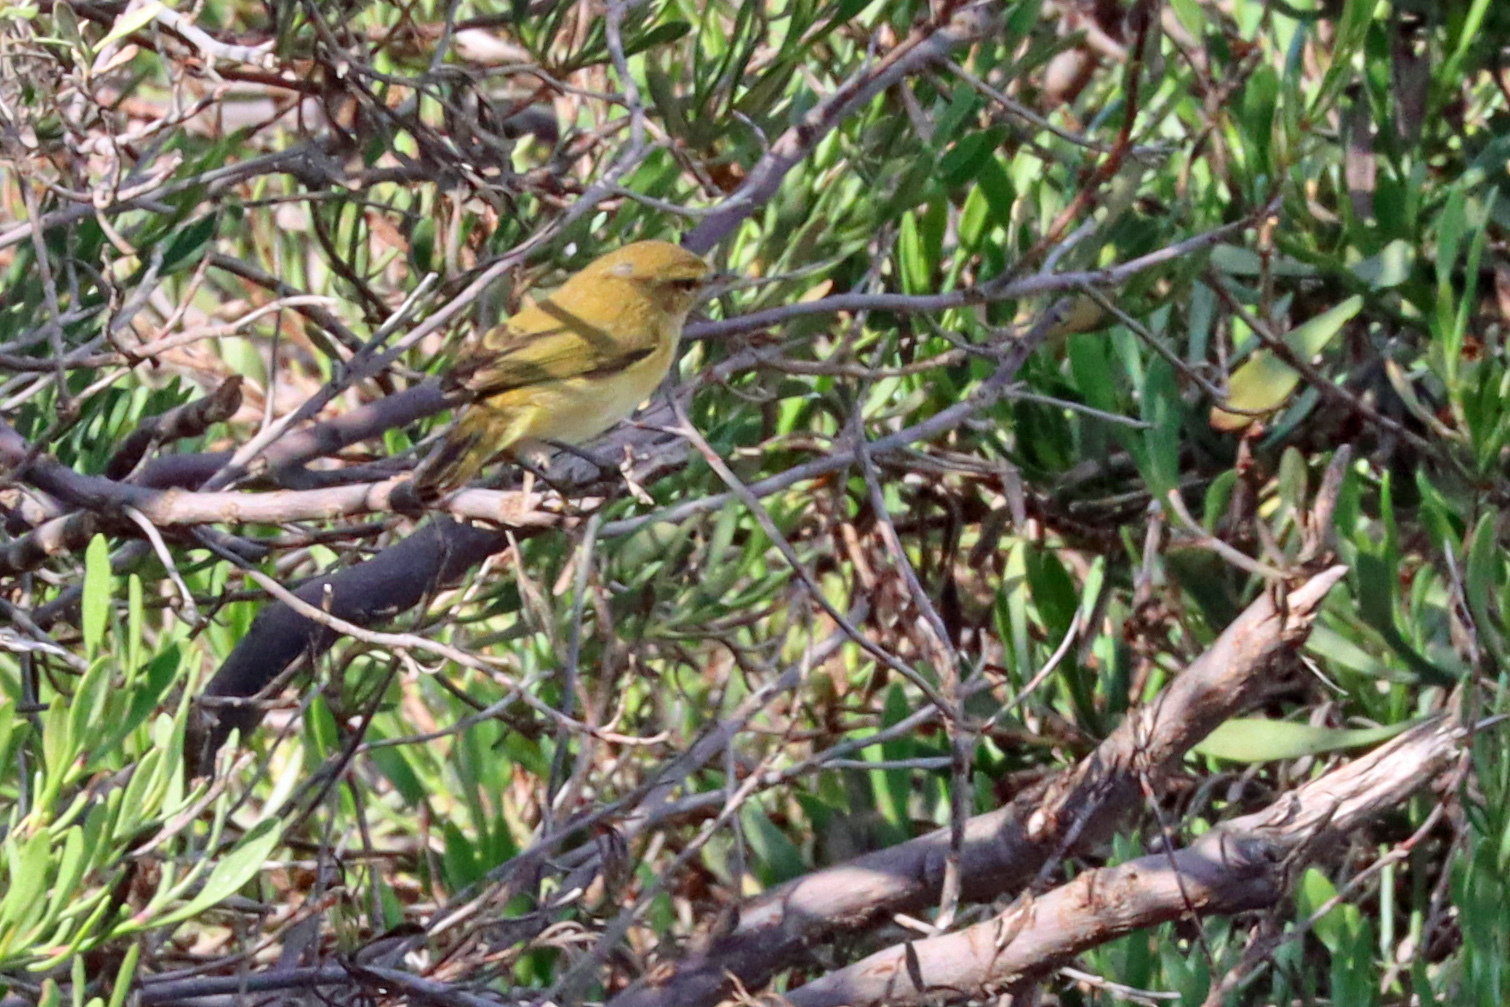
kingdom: Animalia
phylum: Chordata
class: Aves
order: Passeriformes
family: Phylloscopidae
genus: Phylloscopus
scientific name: Phylloscopus collybita
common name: Common chiffchaff
